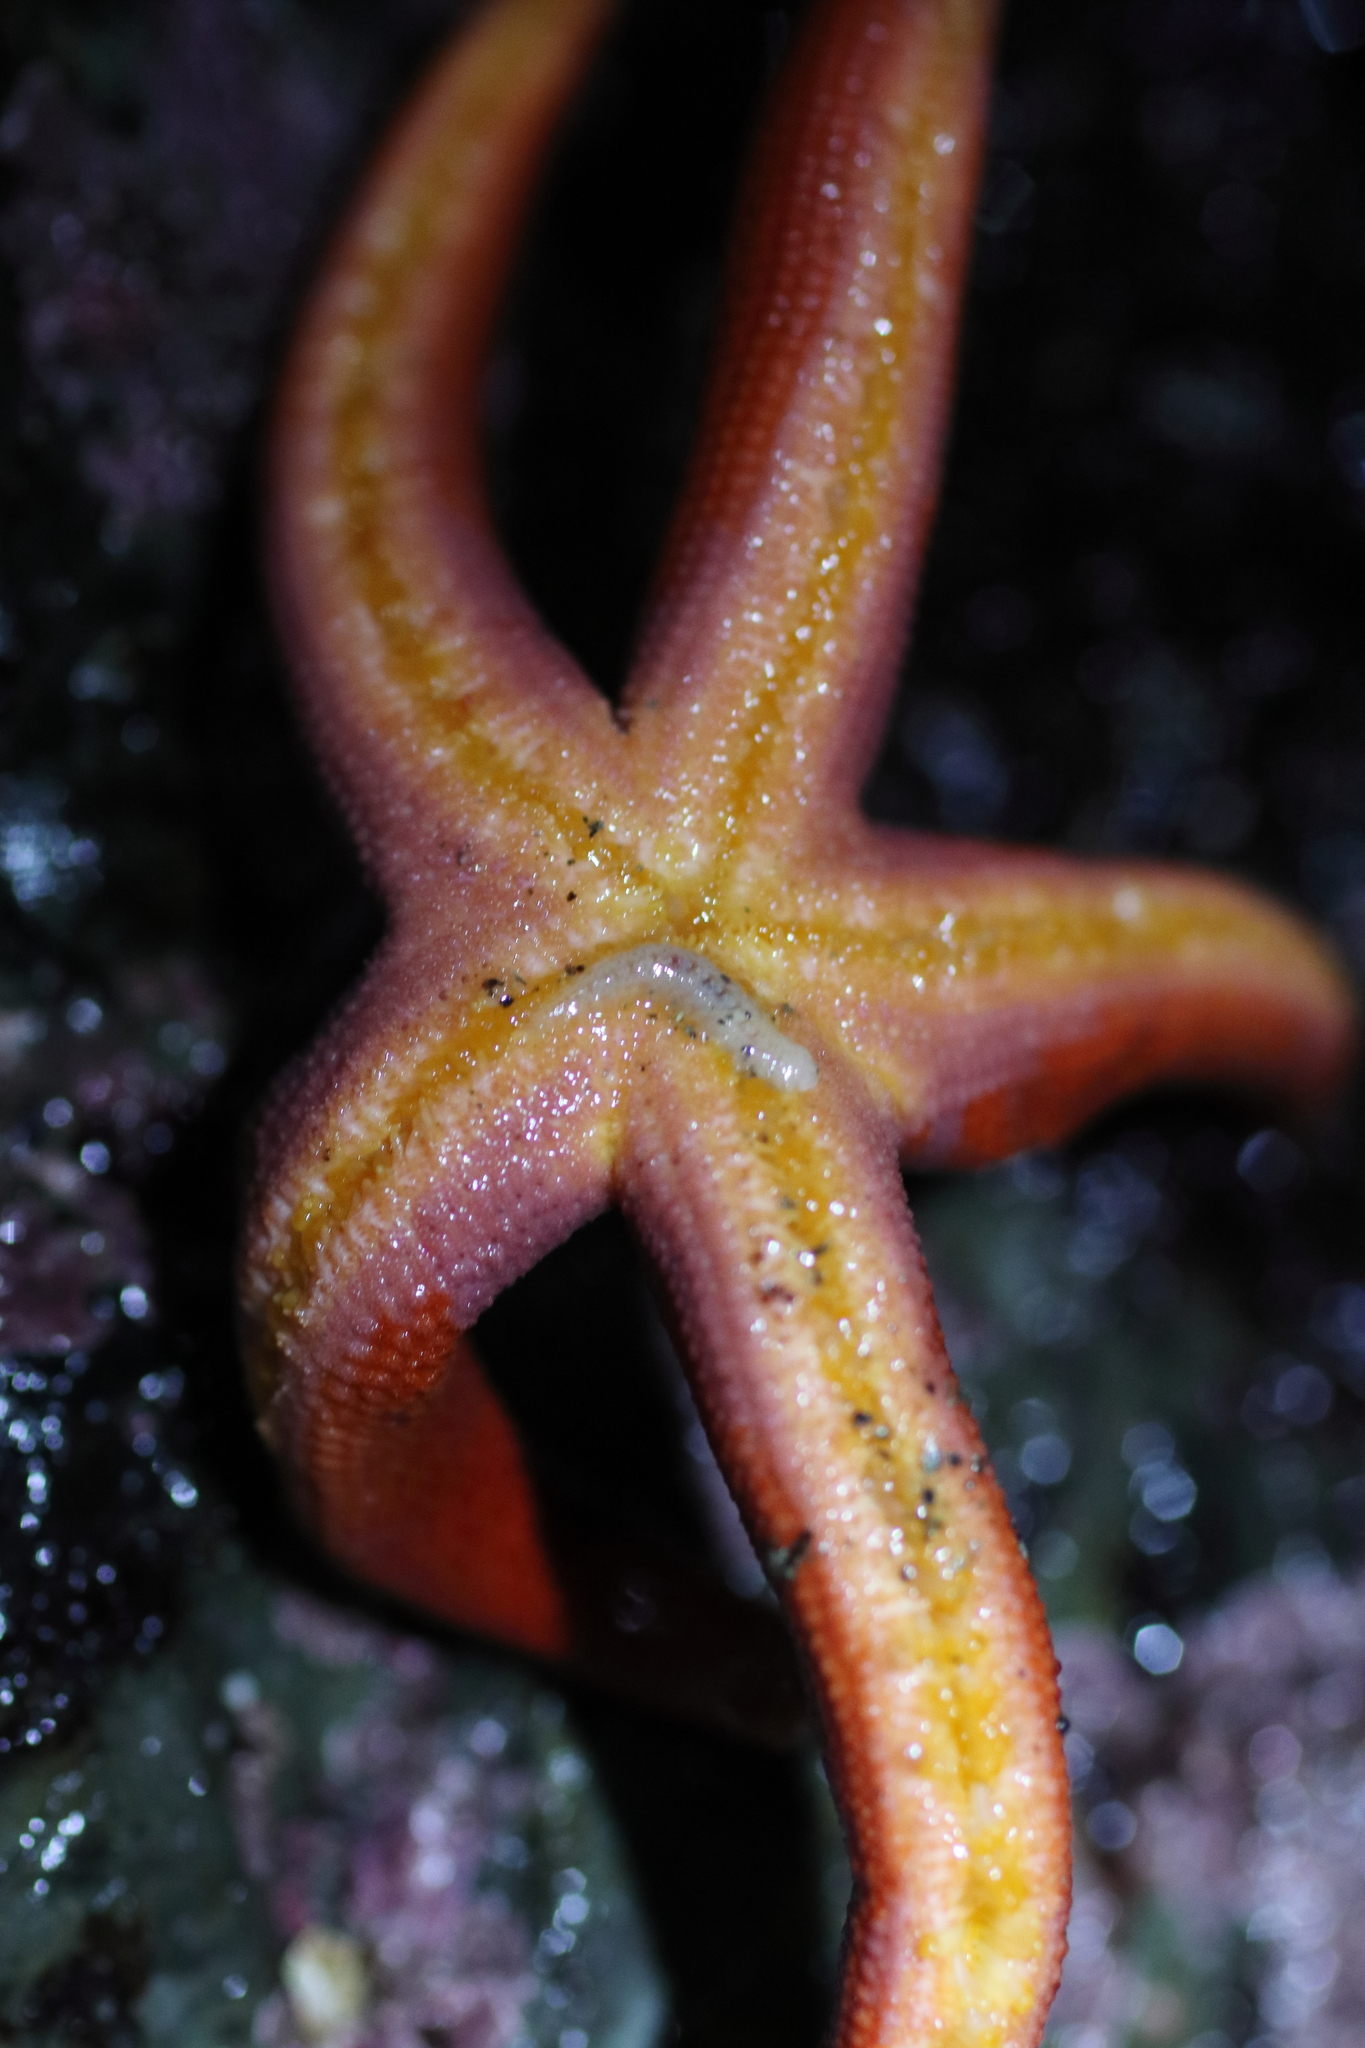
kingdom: Animalia
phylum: Annelida
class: Polychaeta
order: Phyllodocida
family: Polynoidae
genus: Arctonoe
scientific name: Arctonoe vittata
